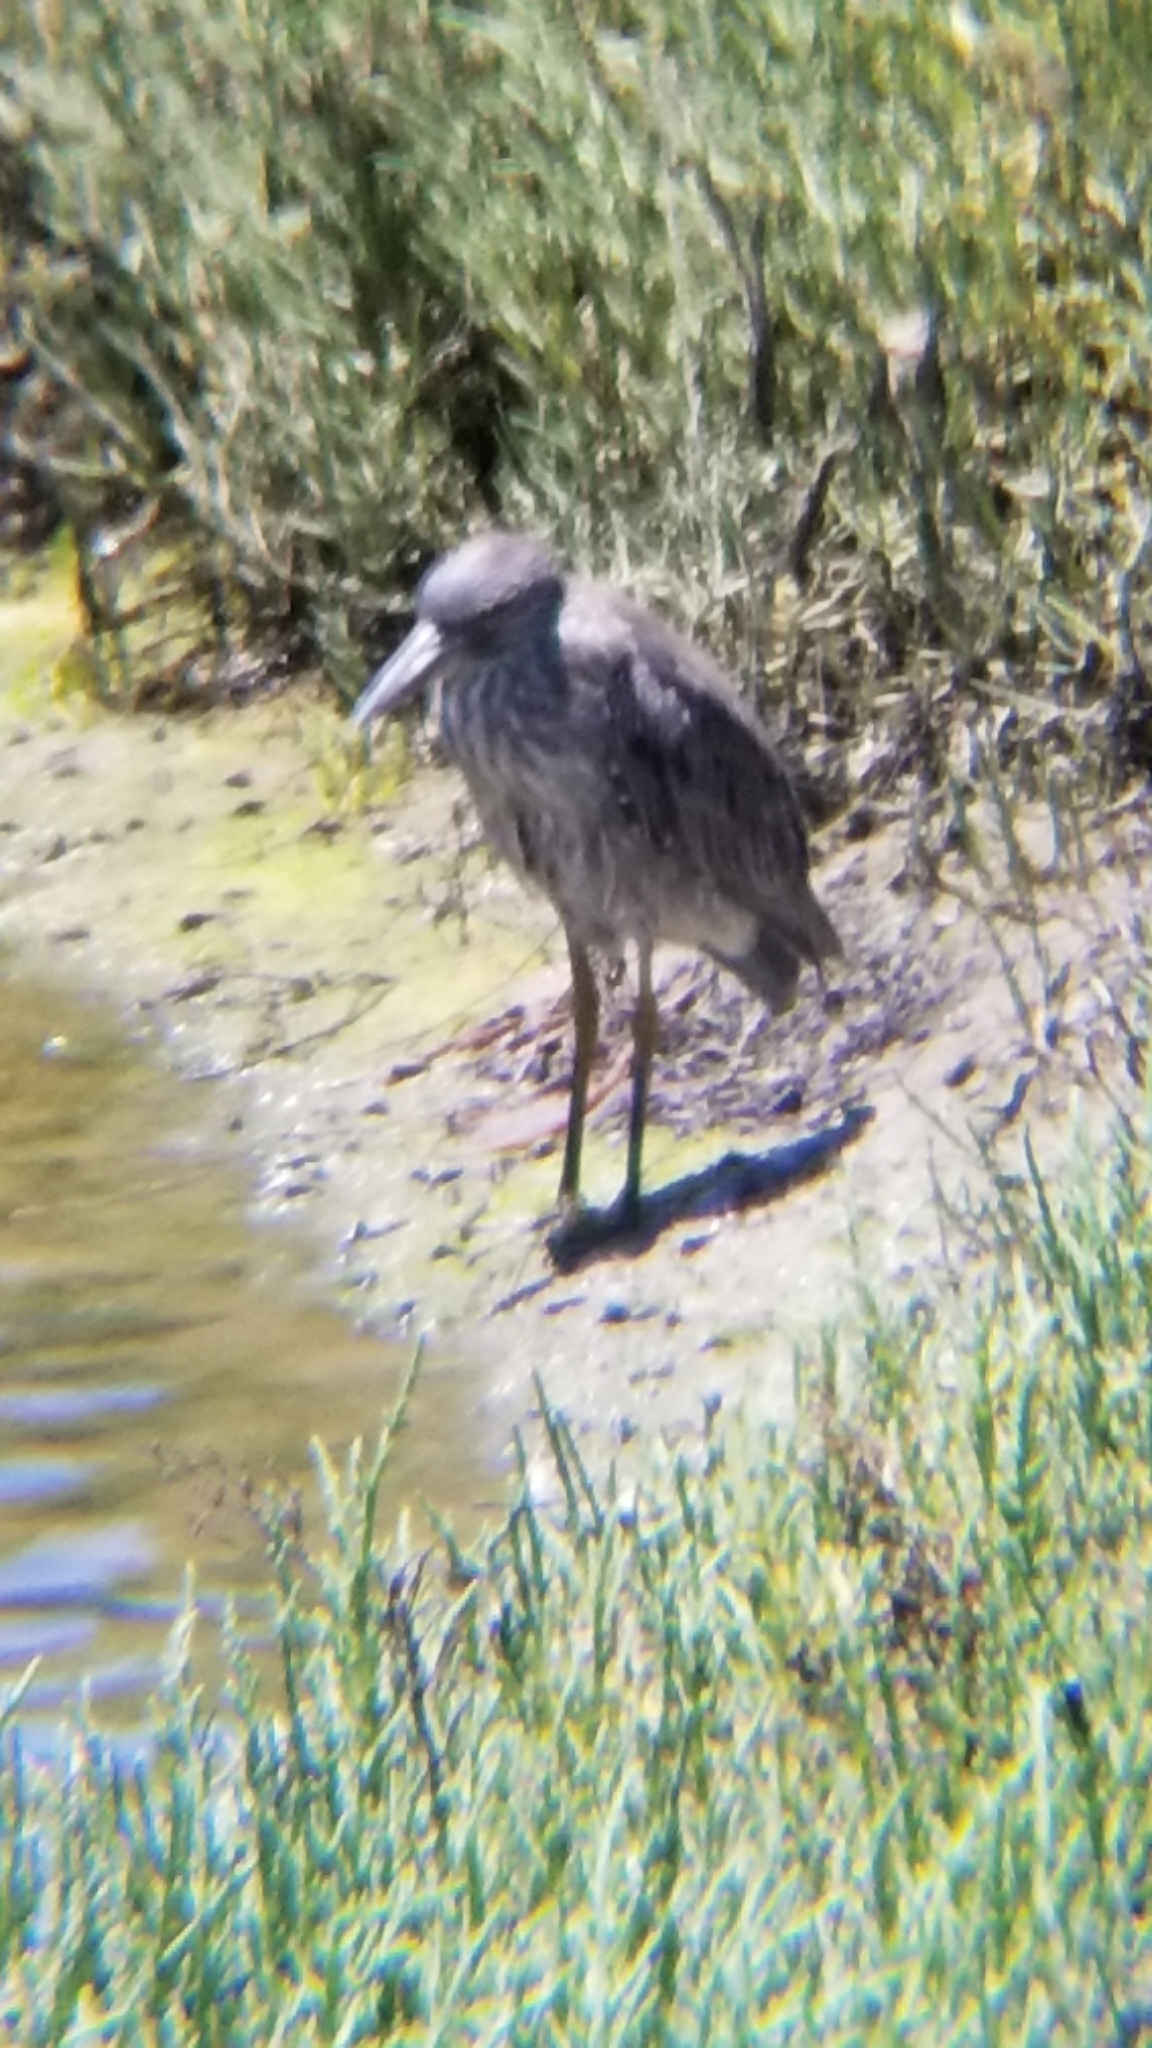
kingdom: Animalia
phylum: Chordata
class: Aves
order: Pelecaniformes
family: Ardeidae
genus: Nyctanassa
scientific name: Nyctanassa violacea
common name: Yellow-crowned night heron
